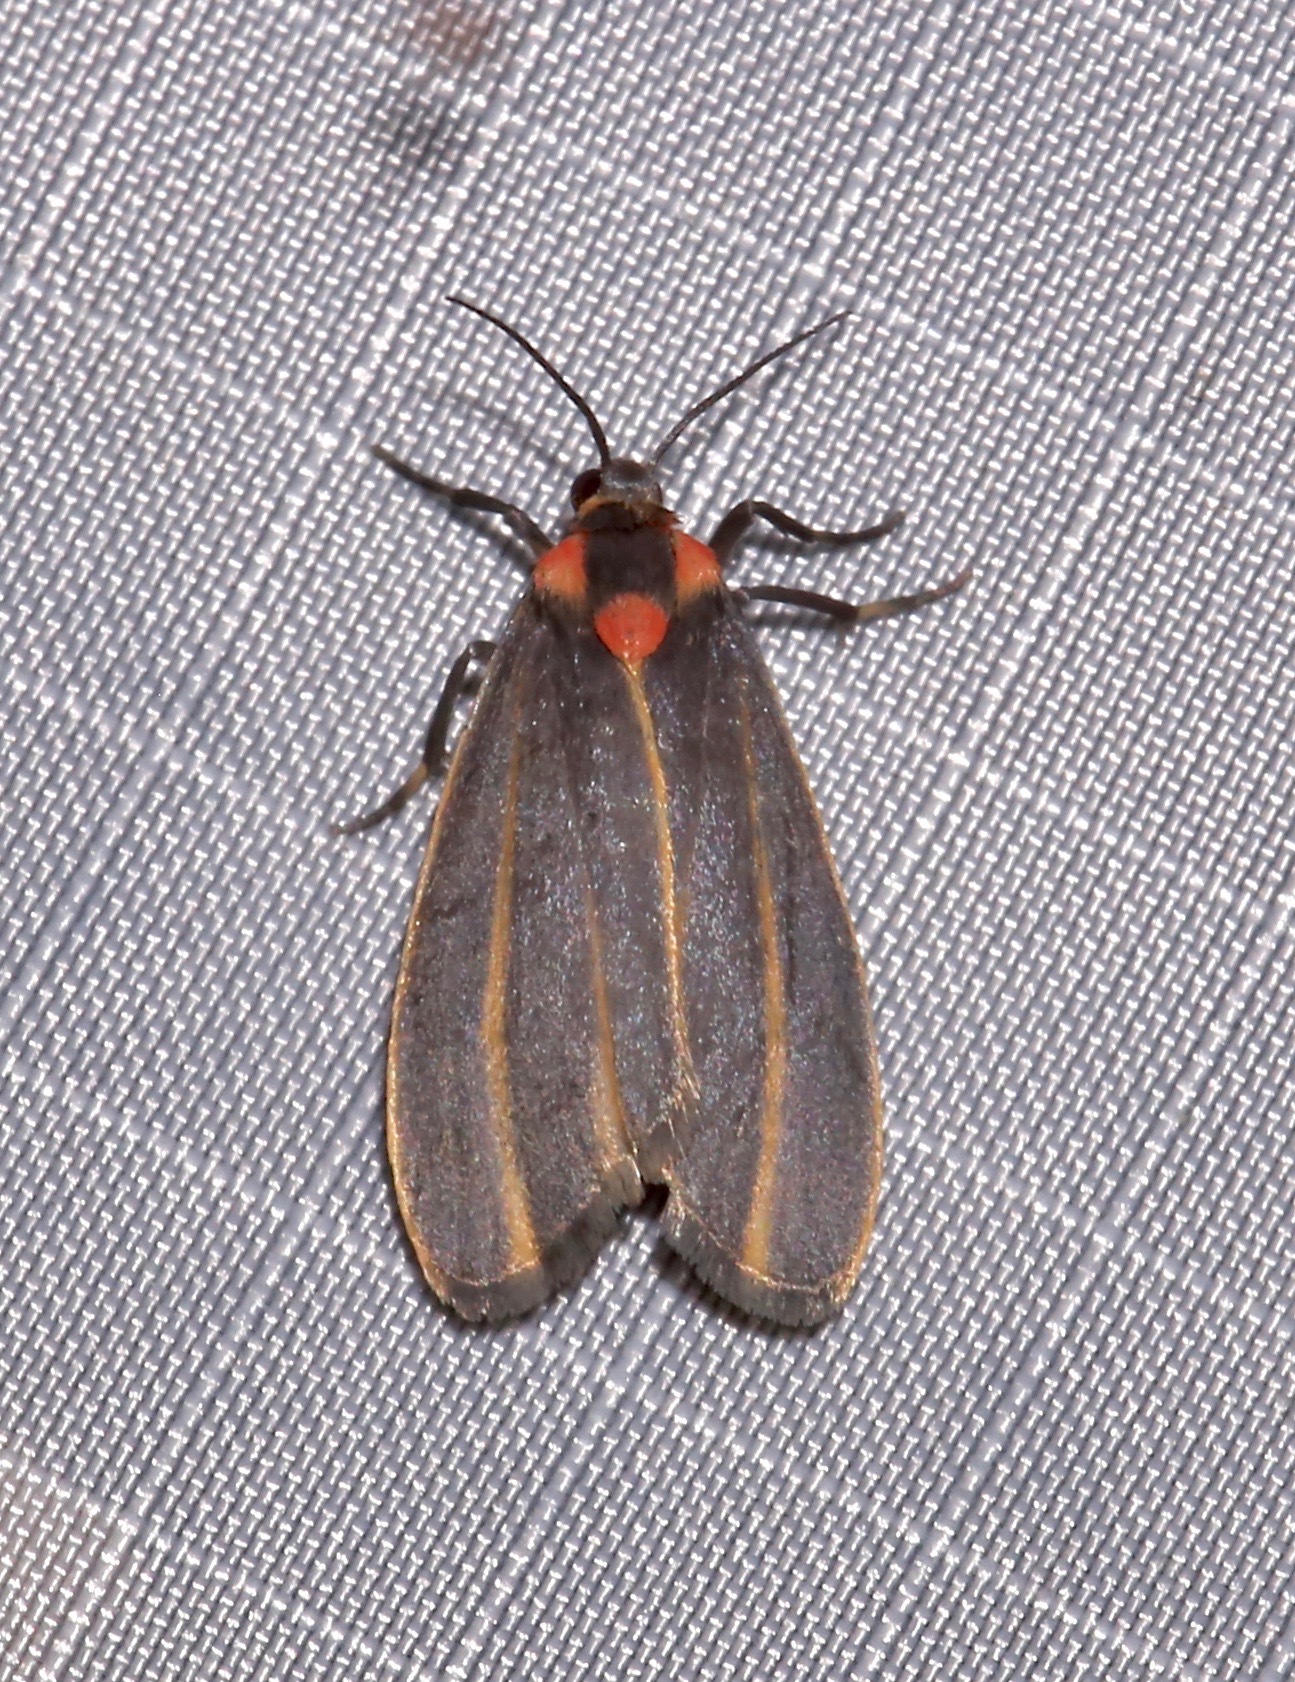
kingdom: Animalia
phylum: Arthropoda
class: Insecta
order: Lepidoptera
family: Erebidae
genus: Haematomis
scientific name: Haematomis uniformis
